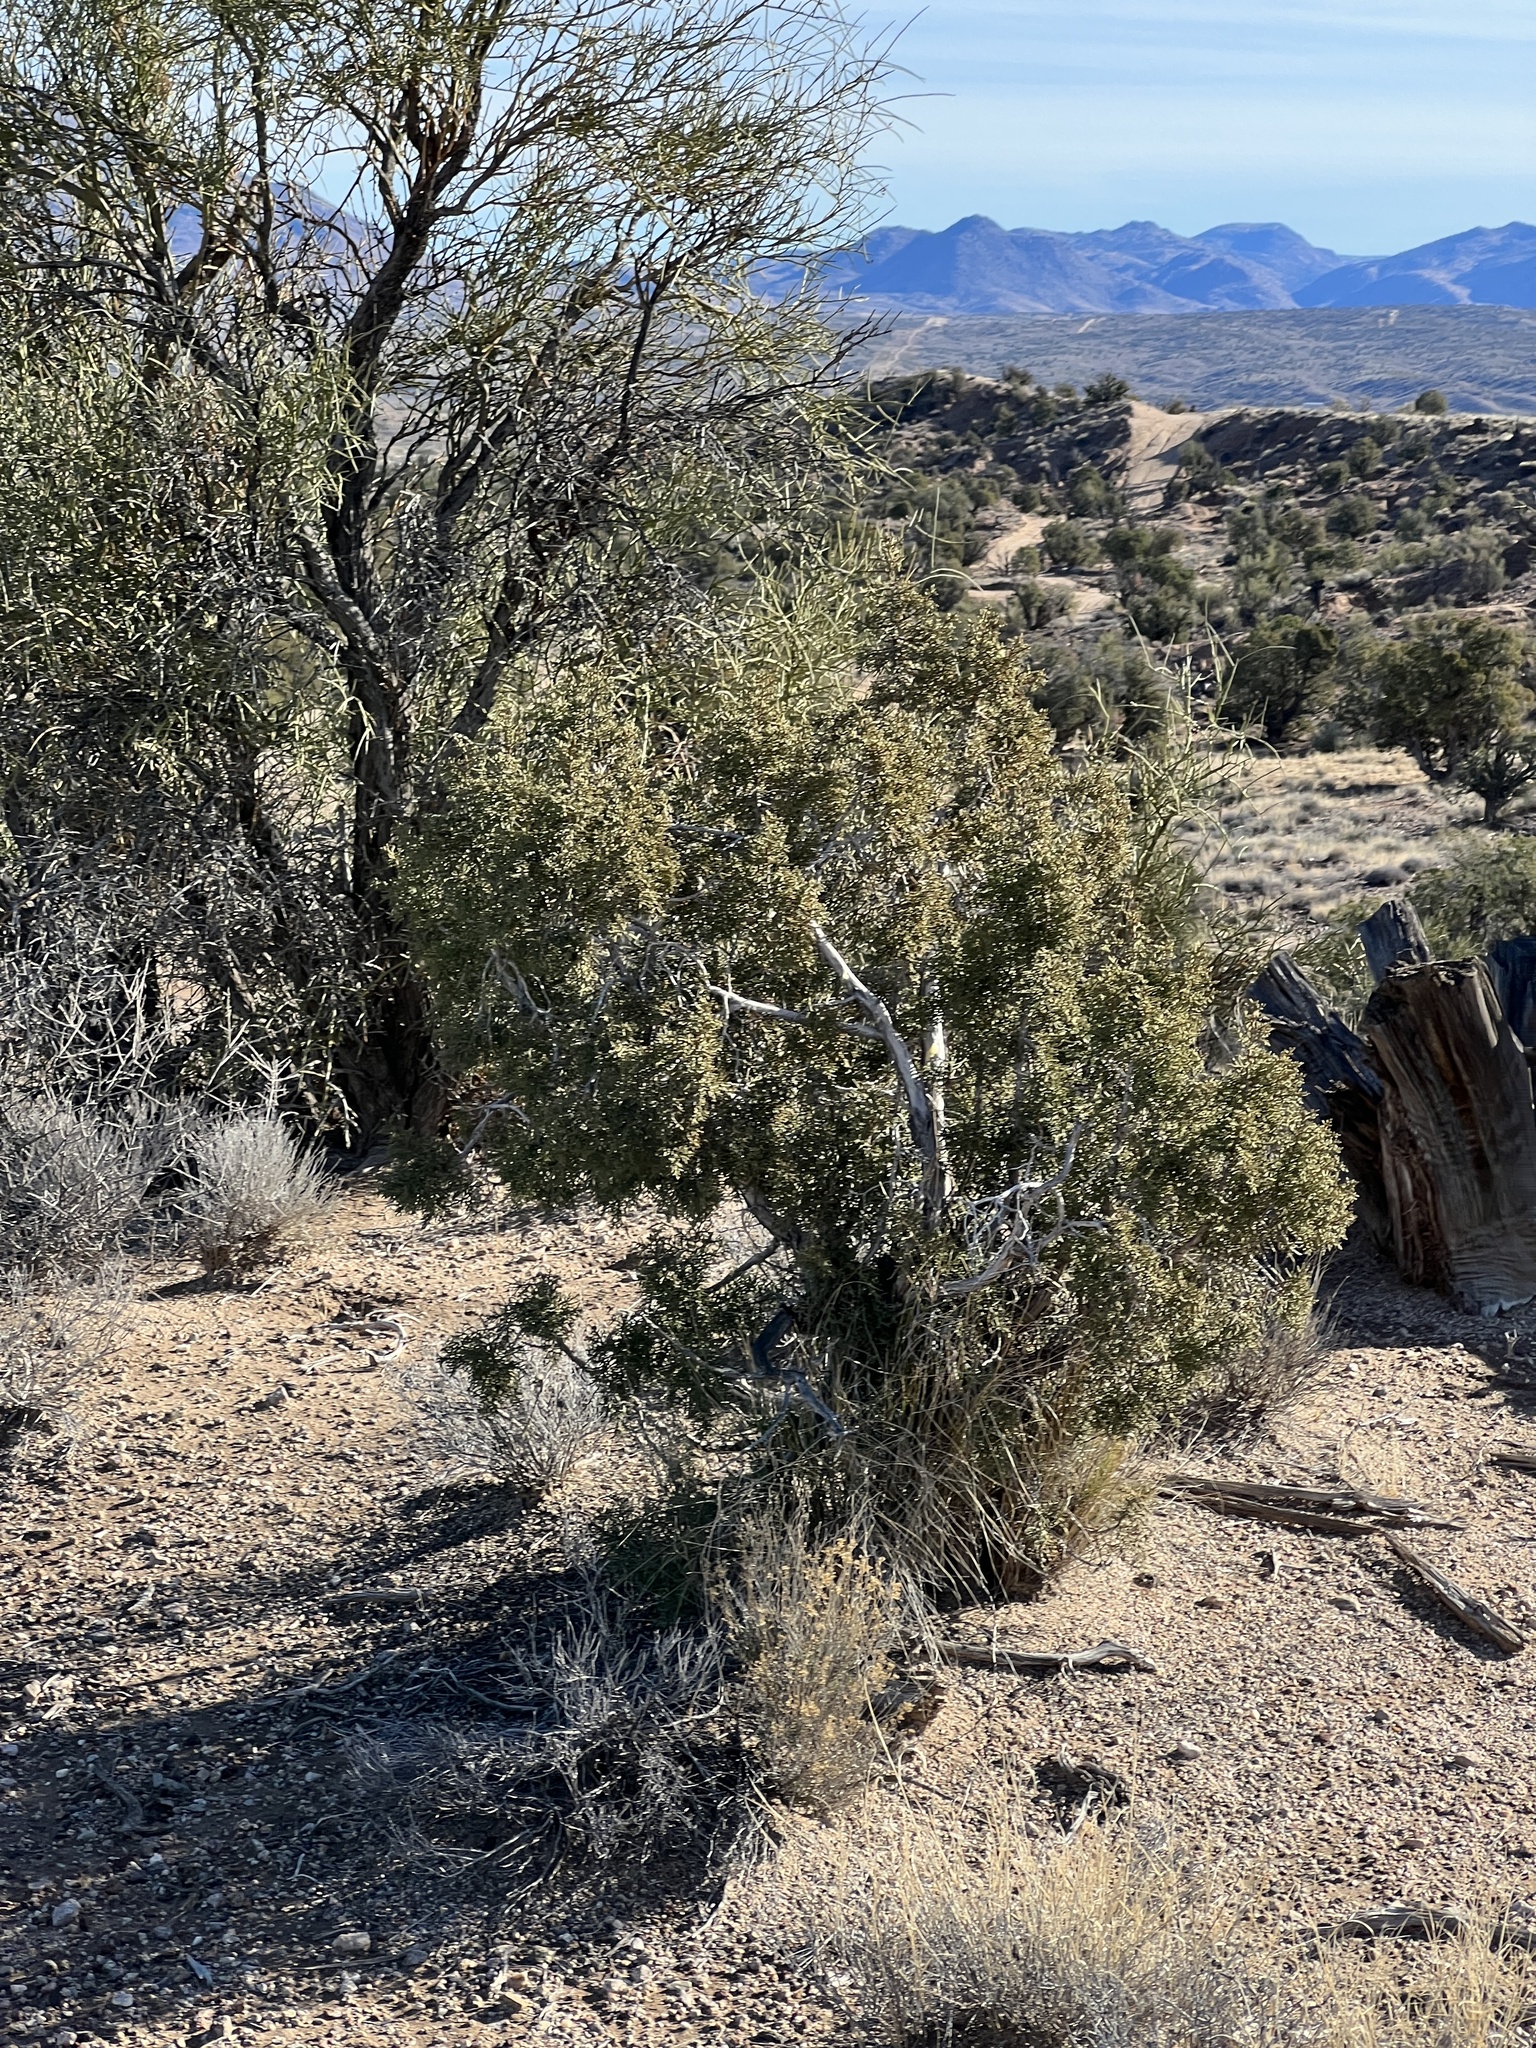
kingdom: Plantae
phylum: Tracheophyta
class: Pinopsida
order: Pinales
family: Cupressaceae
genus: Juniperus
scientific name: Juniperus osteosperma
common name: Utah juniper
